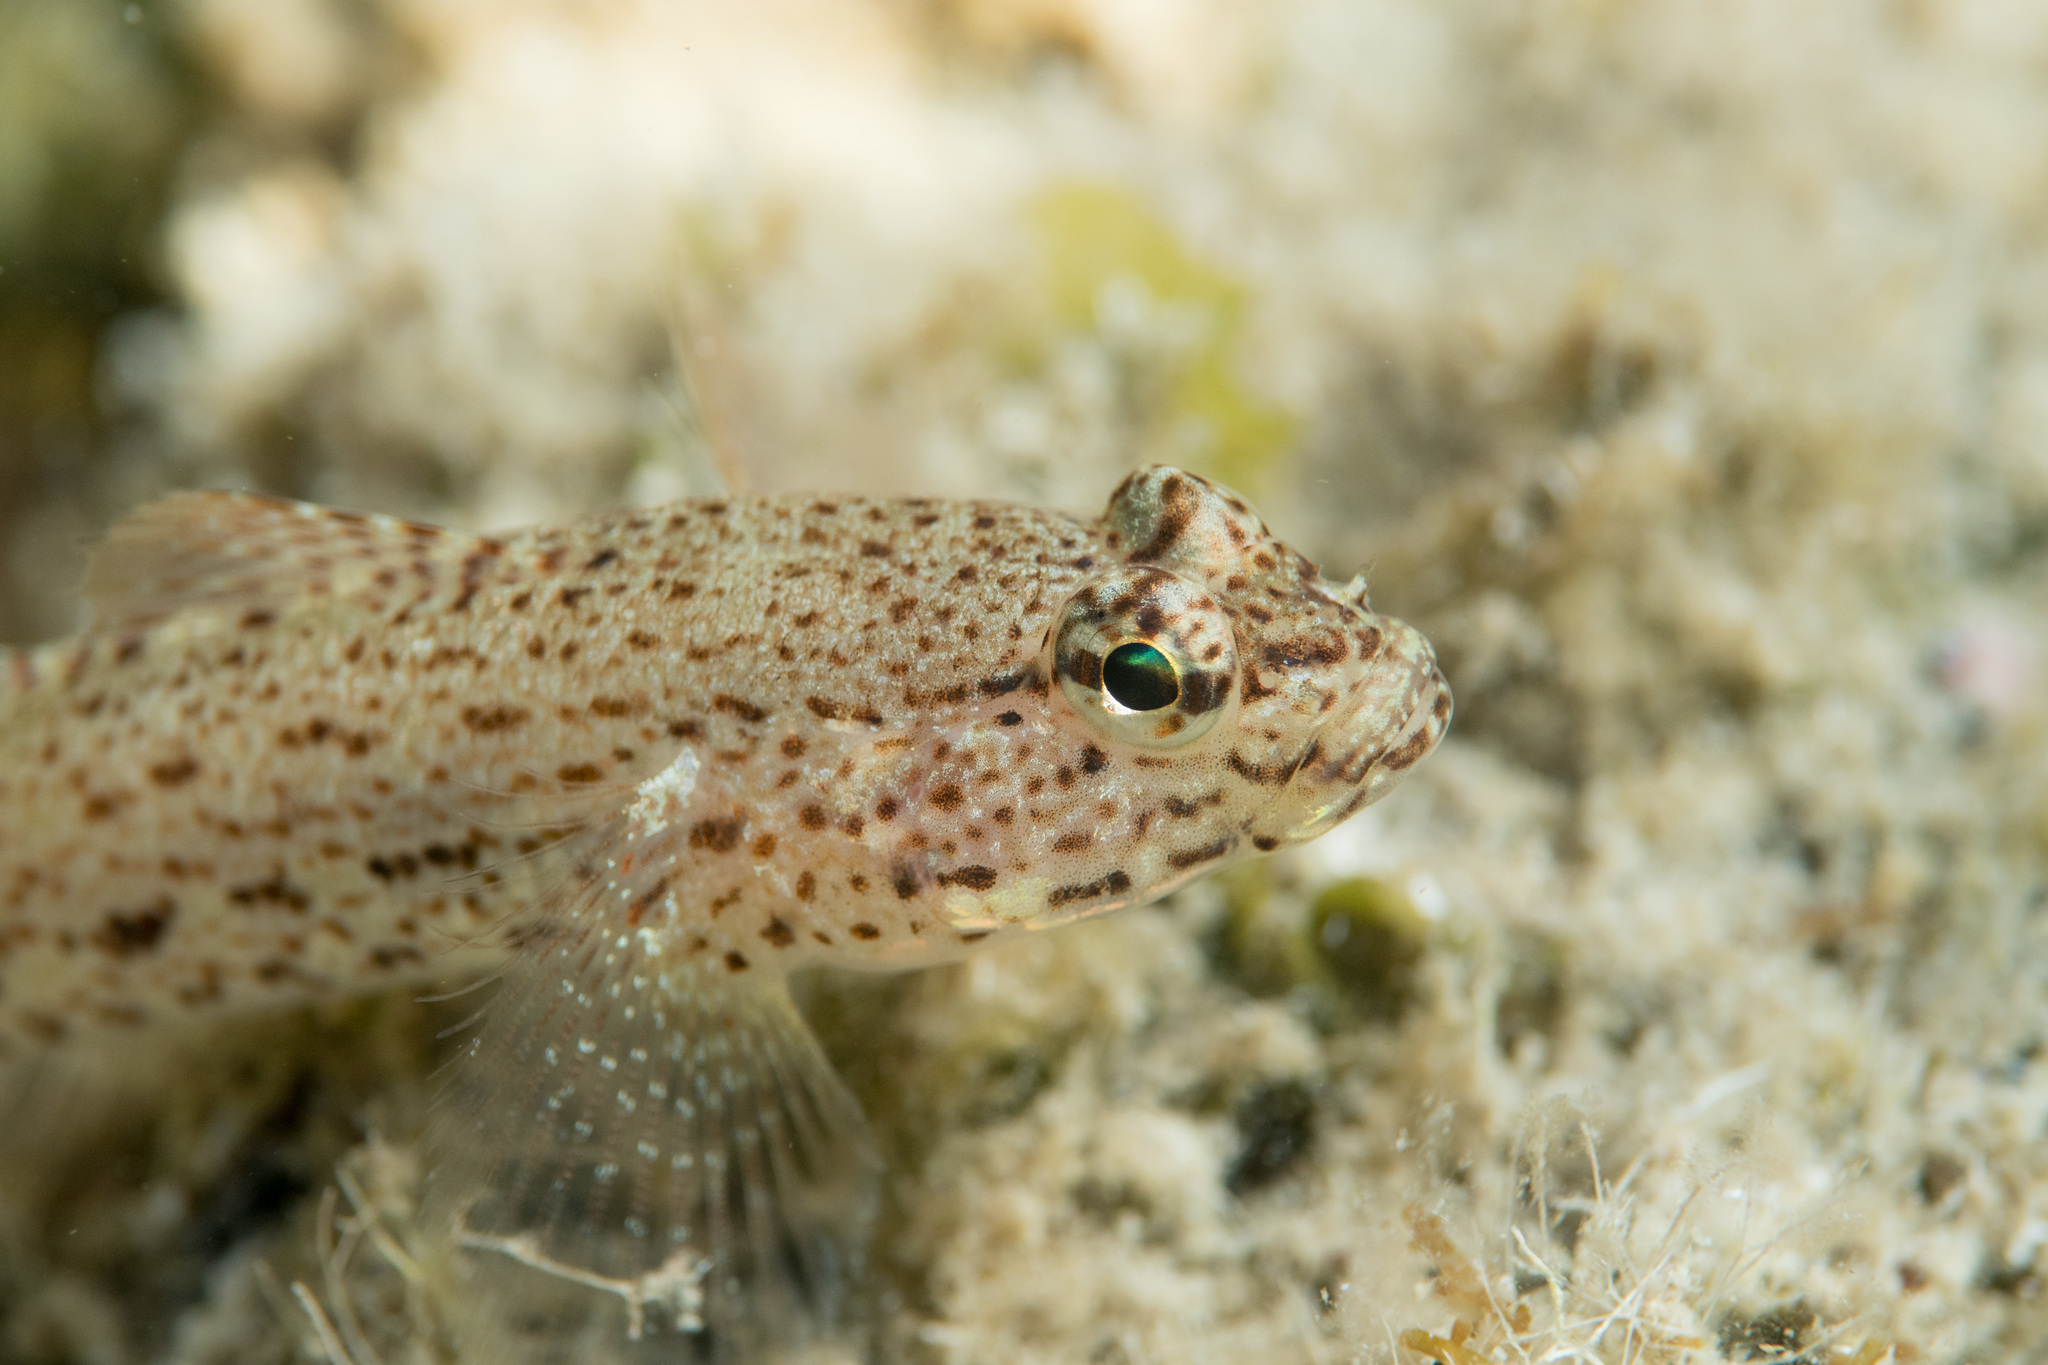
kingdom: Animalia
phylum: Chordata
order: Perciformes
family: Gobiidae
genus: Gobius
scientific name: Gobius incognitus
